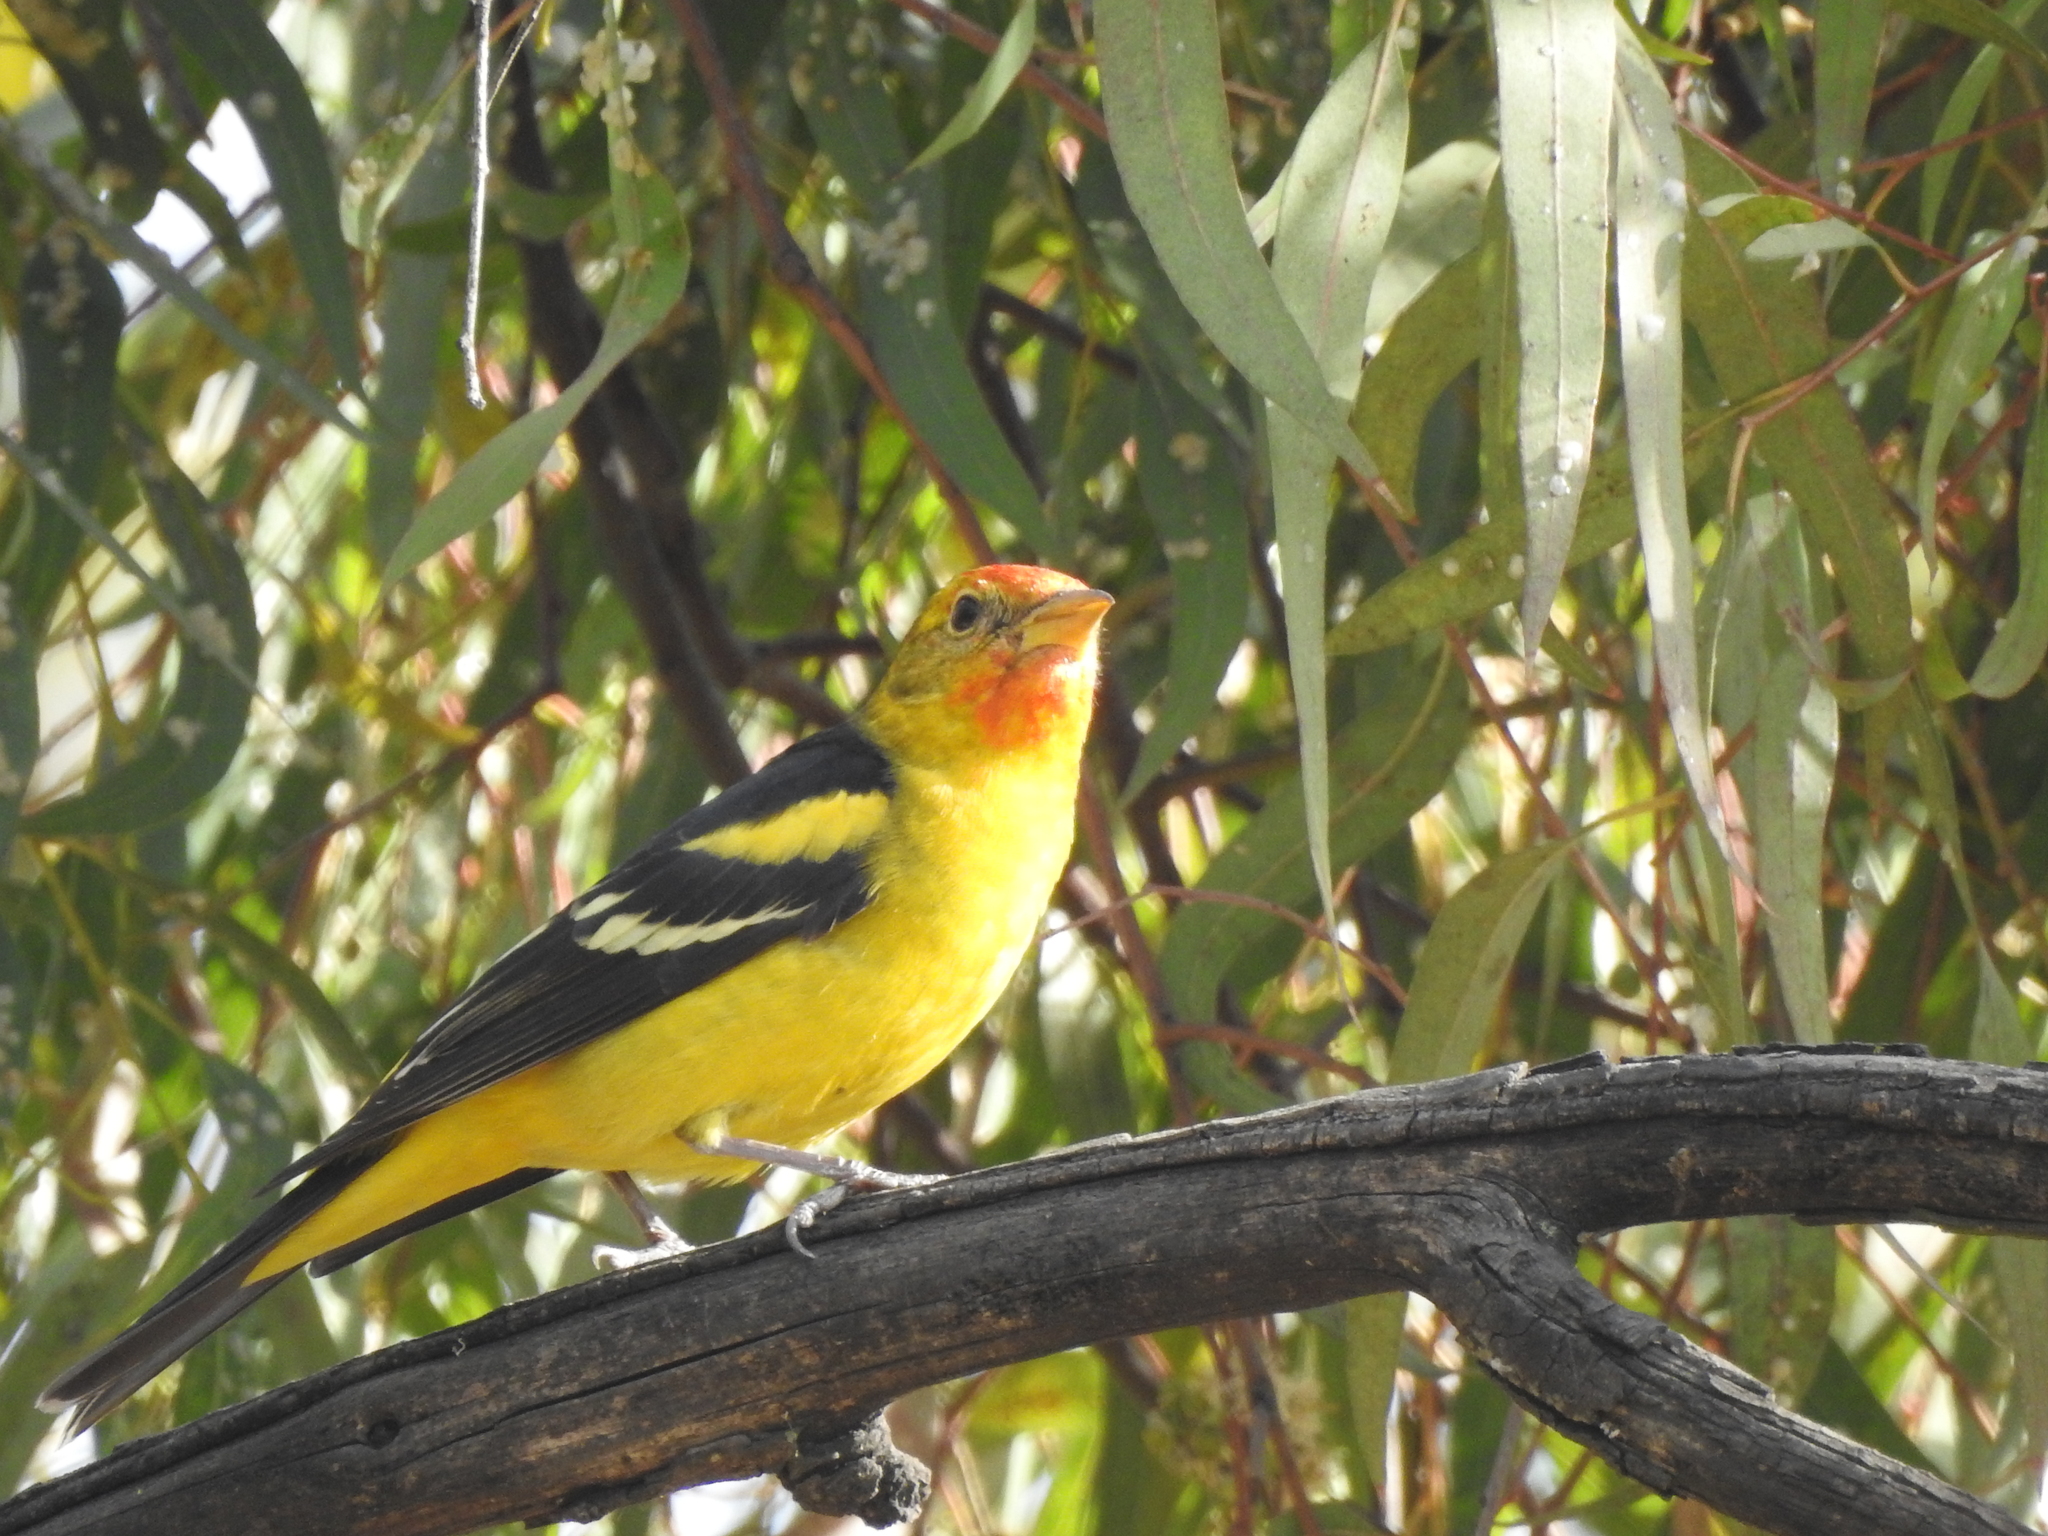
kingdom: Animalia
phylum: Chordata
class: Aves
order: Passeriformes
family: Cardinalidae
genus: Piranga
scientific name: Piranga ludoviciana
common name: Western tanager
